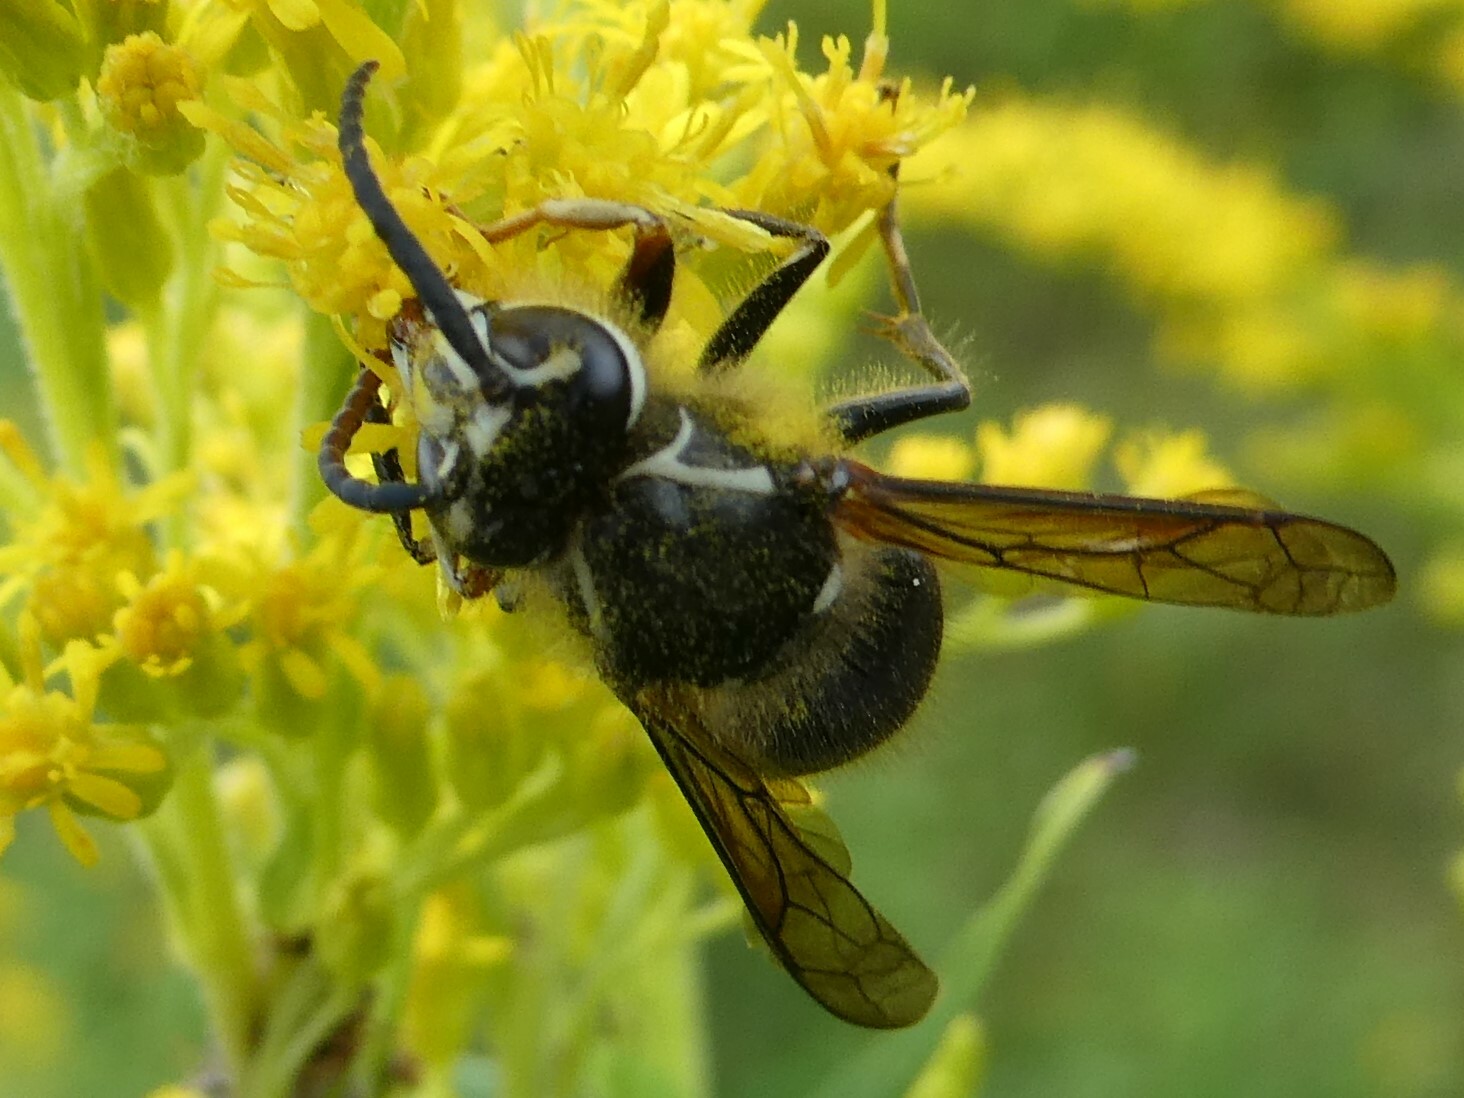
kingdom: Animalia
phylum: Arthropoda
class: Insecta
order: Hymenoptera
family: Vespidae
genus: Dolichovespula
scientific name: Dolichovespula maculata
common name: Bald-faced hornet
